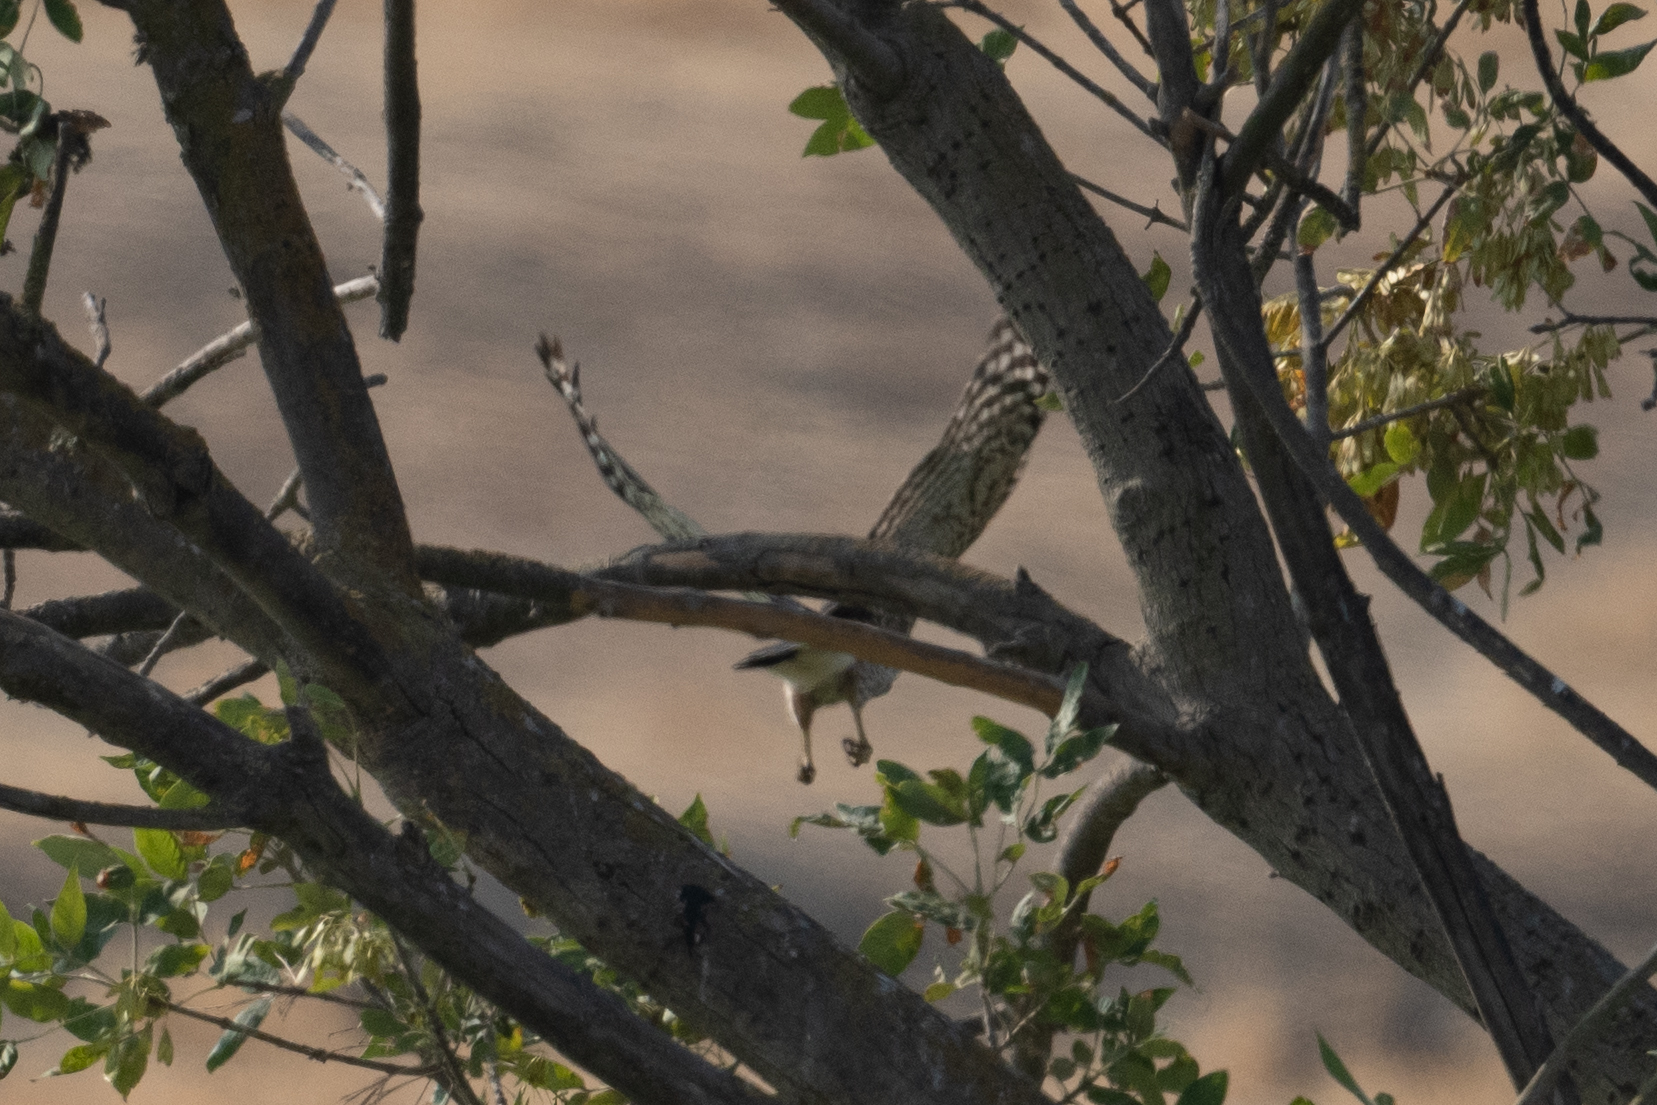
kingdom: Animalia
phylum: Chordata
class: Aves
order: Accipitriformes
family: Accipitridae
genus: Accipiter
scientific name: Accipiter cooperii
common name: Cooper's hawk
